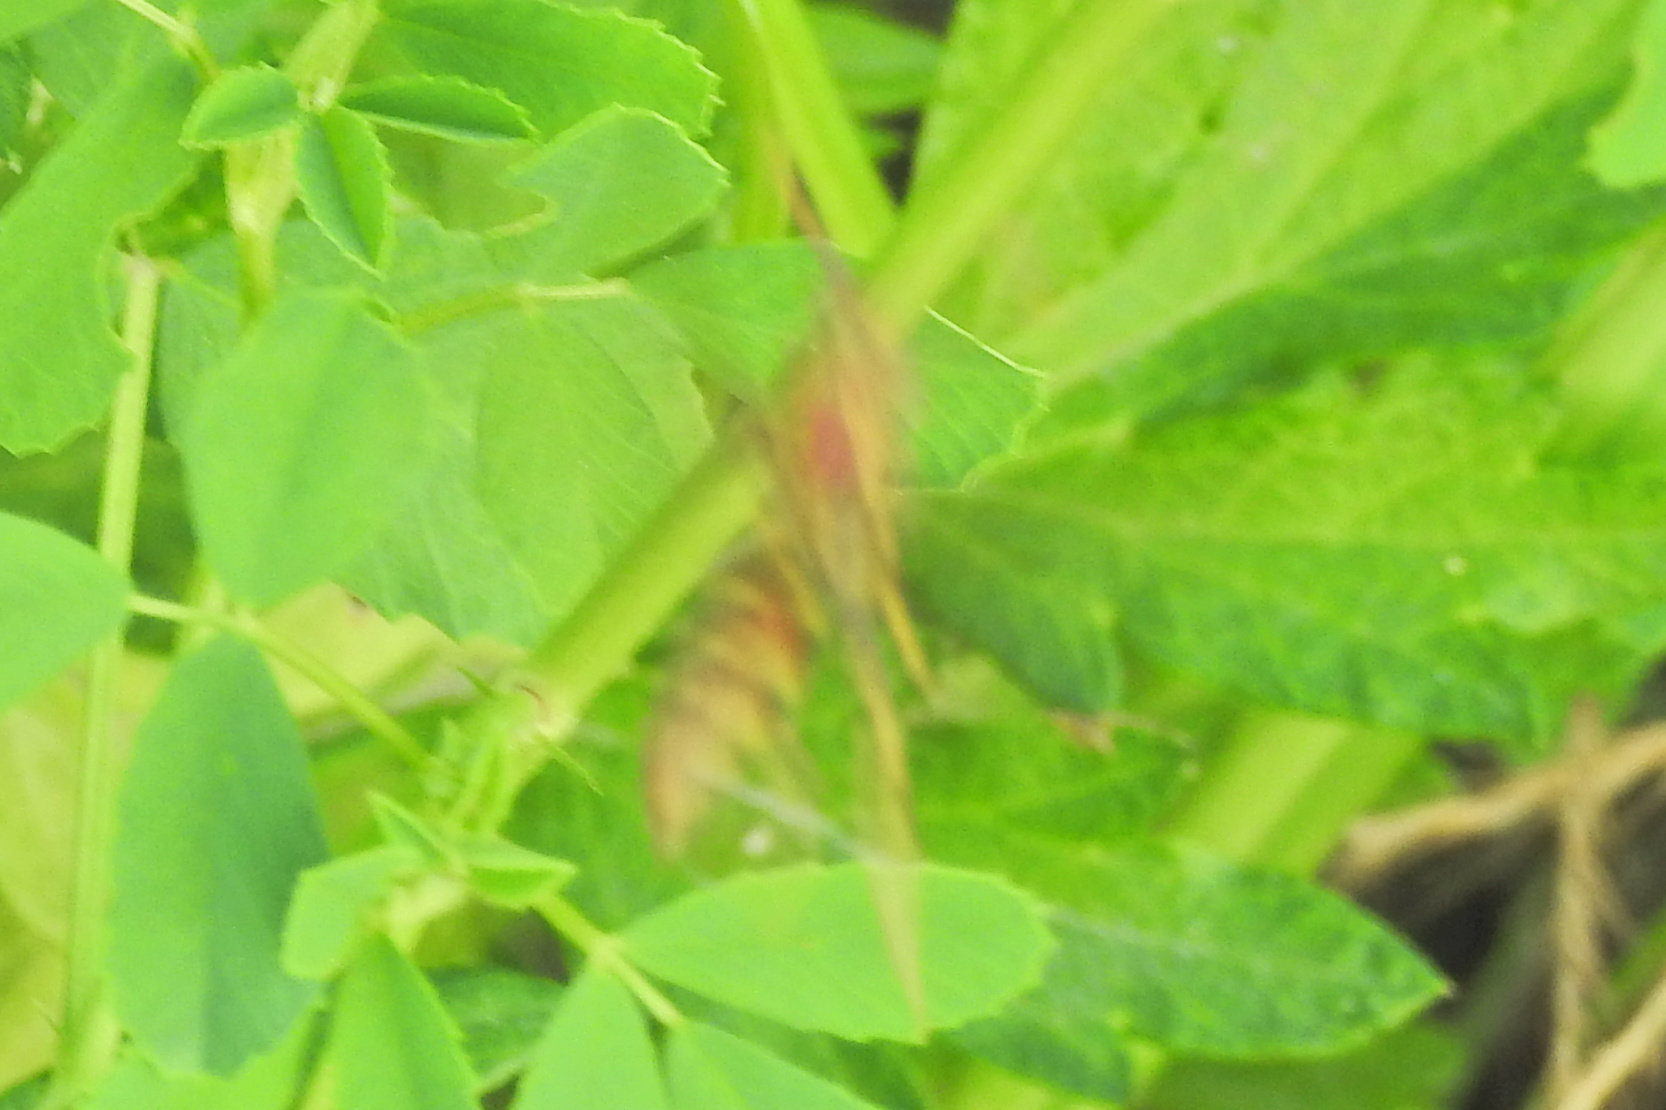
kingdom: Animalia
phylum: Arthropoda
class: Insecta
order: Hymenoptera
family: Eumenidae
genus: Polistes
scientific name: Polistes exclamans
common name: Paper wasp
